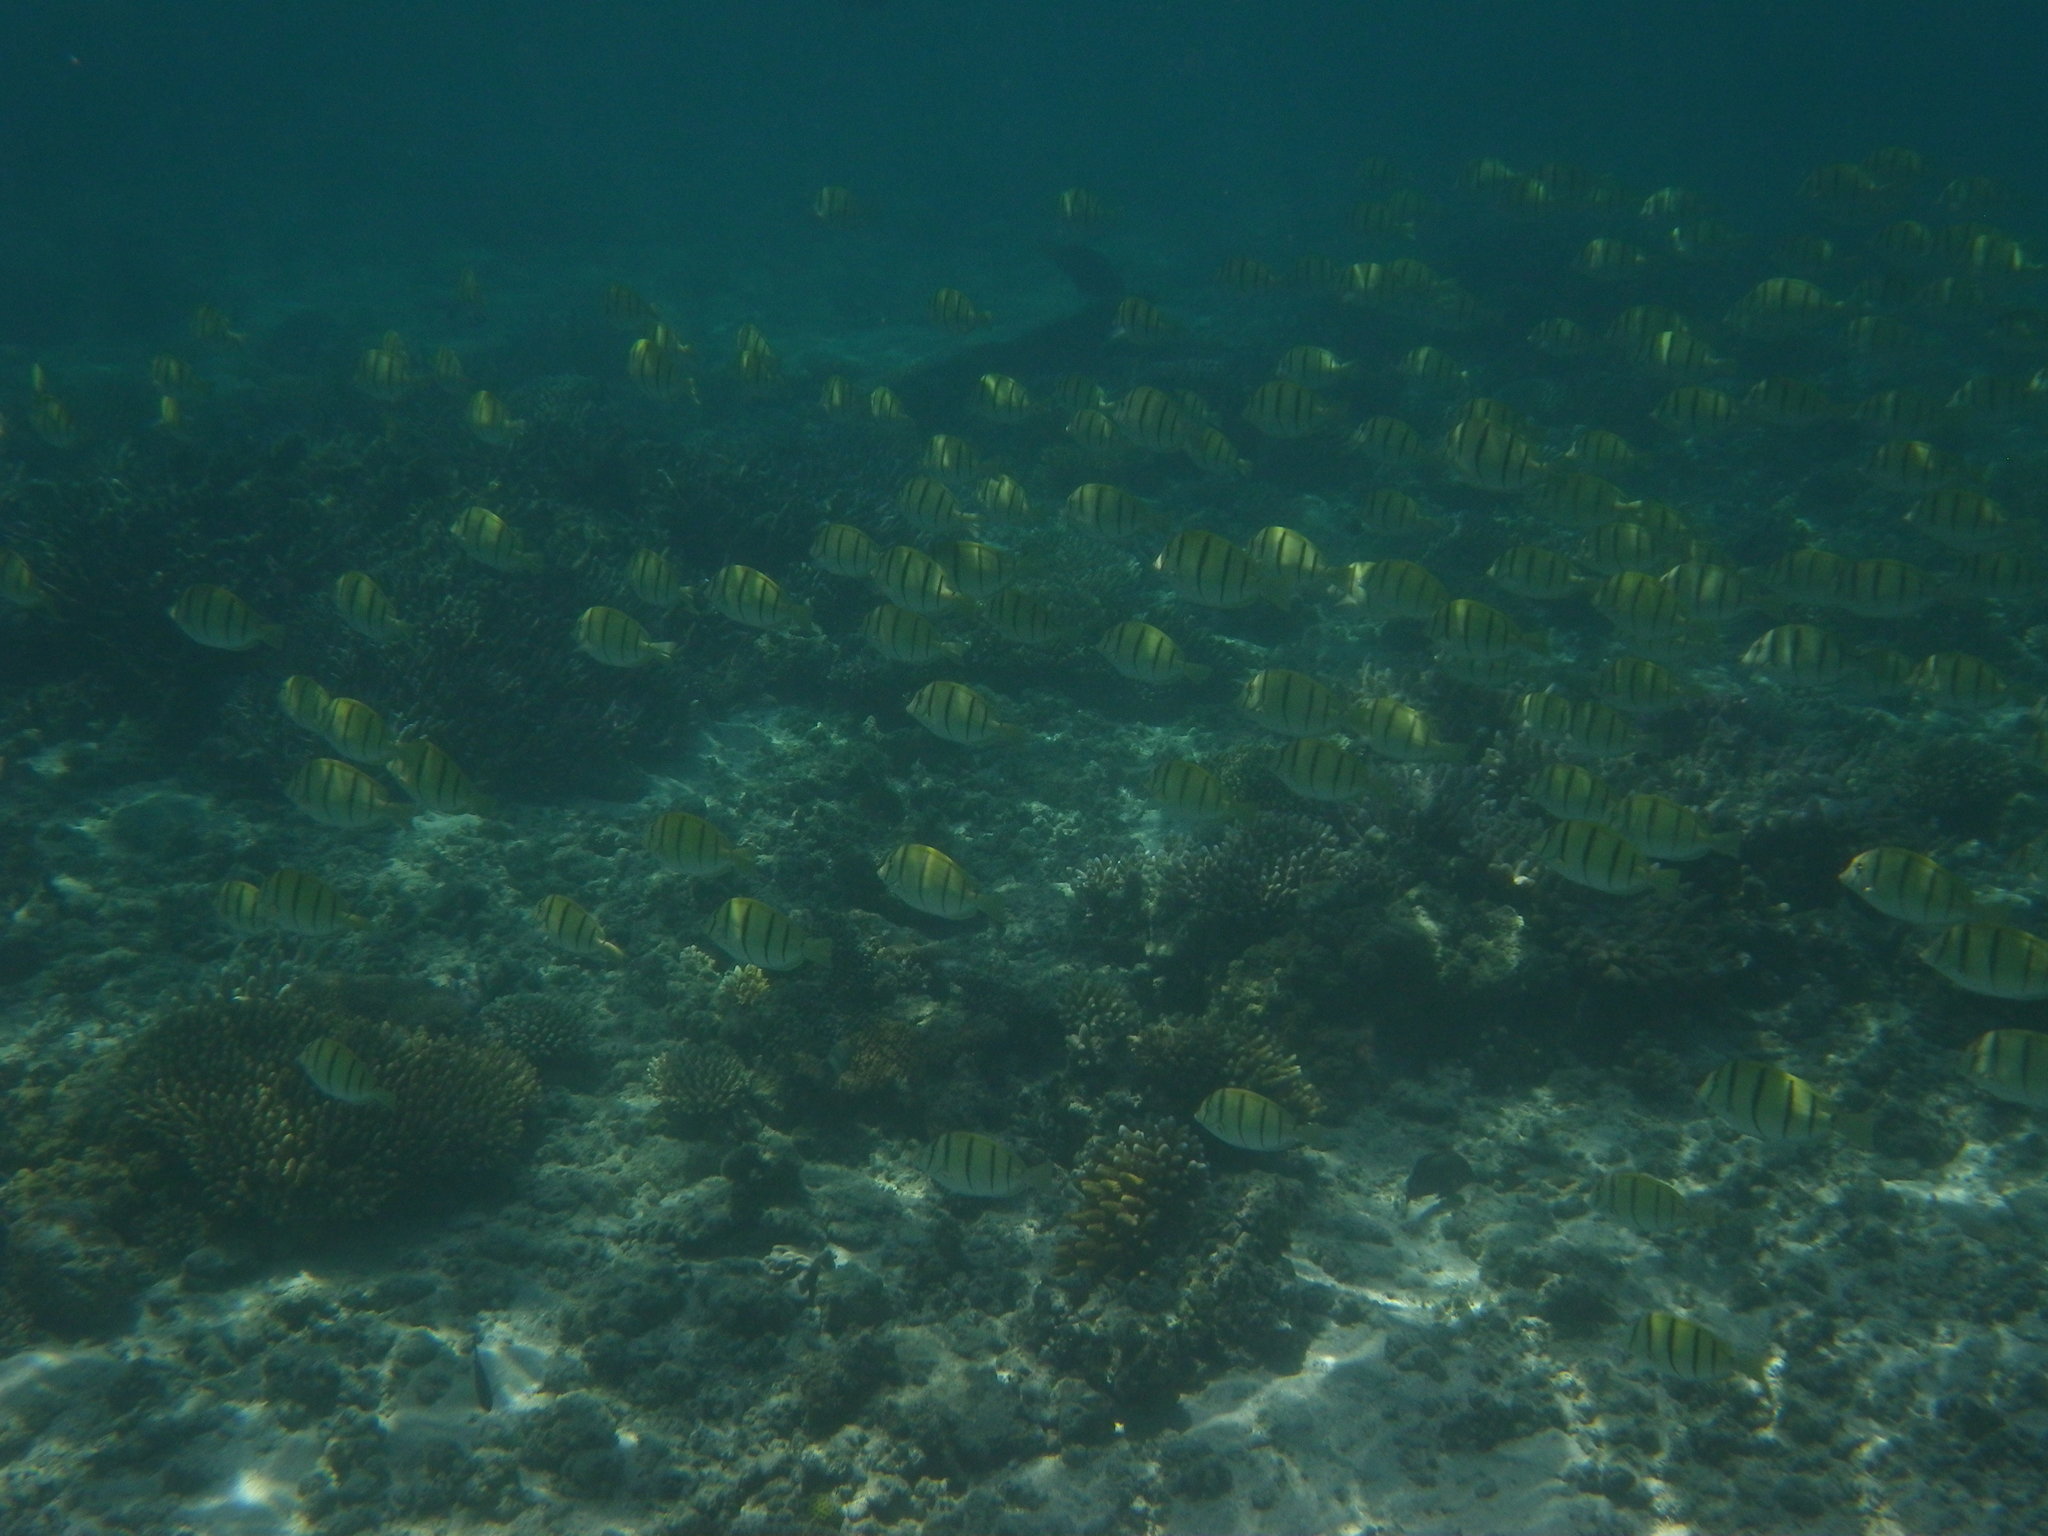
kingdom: Animalia
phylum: Chordata
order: Perciformes
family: Acanthuridae
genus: Acanthurus
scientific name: Acanthurus triostegus
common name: Convict surgeonfish
